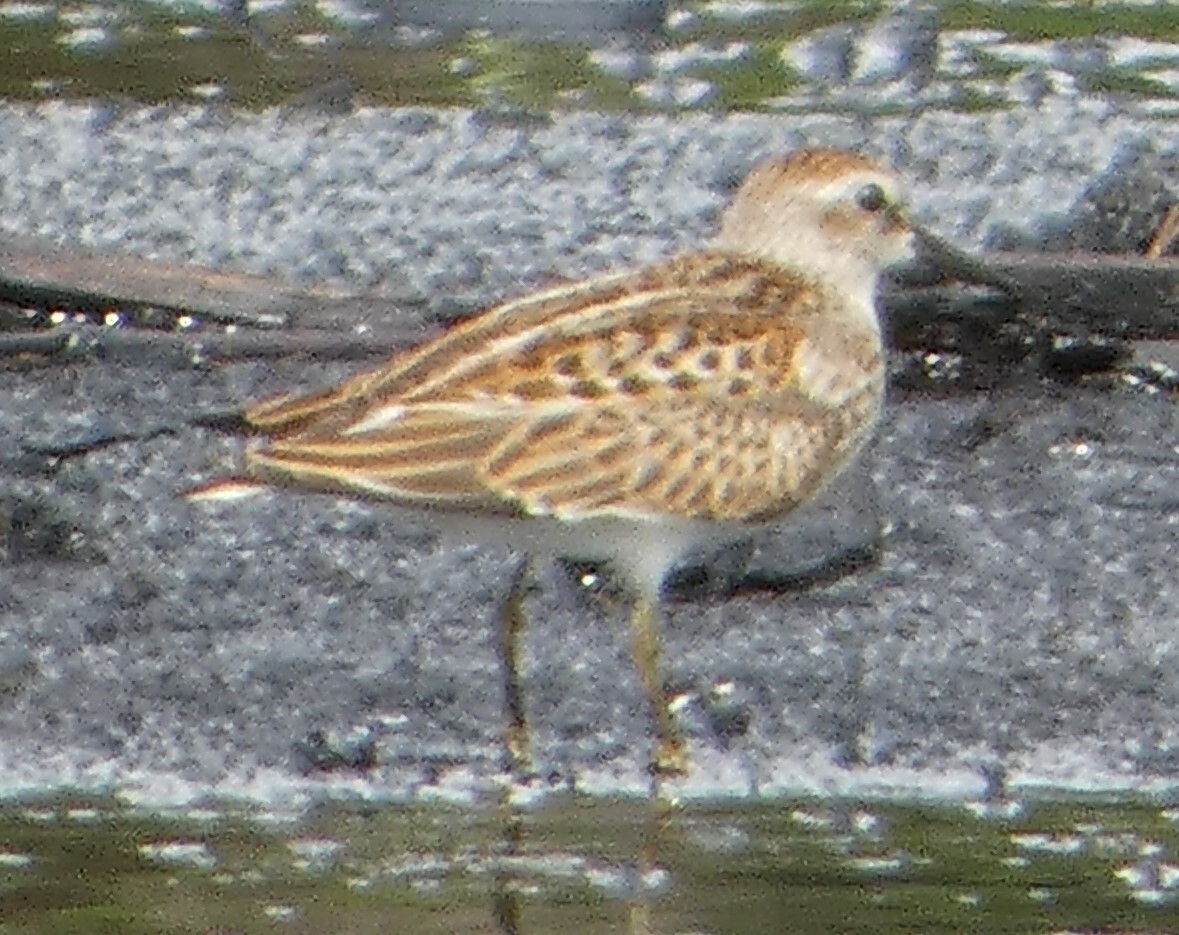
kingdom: Animalia
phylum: Chordata
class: Aves
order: Charadriiformes
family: Scolopacidae
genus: Calidris
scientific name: Calidris minutilla
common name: Least sandpiper
